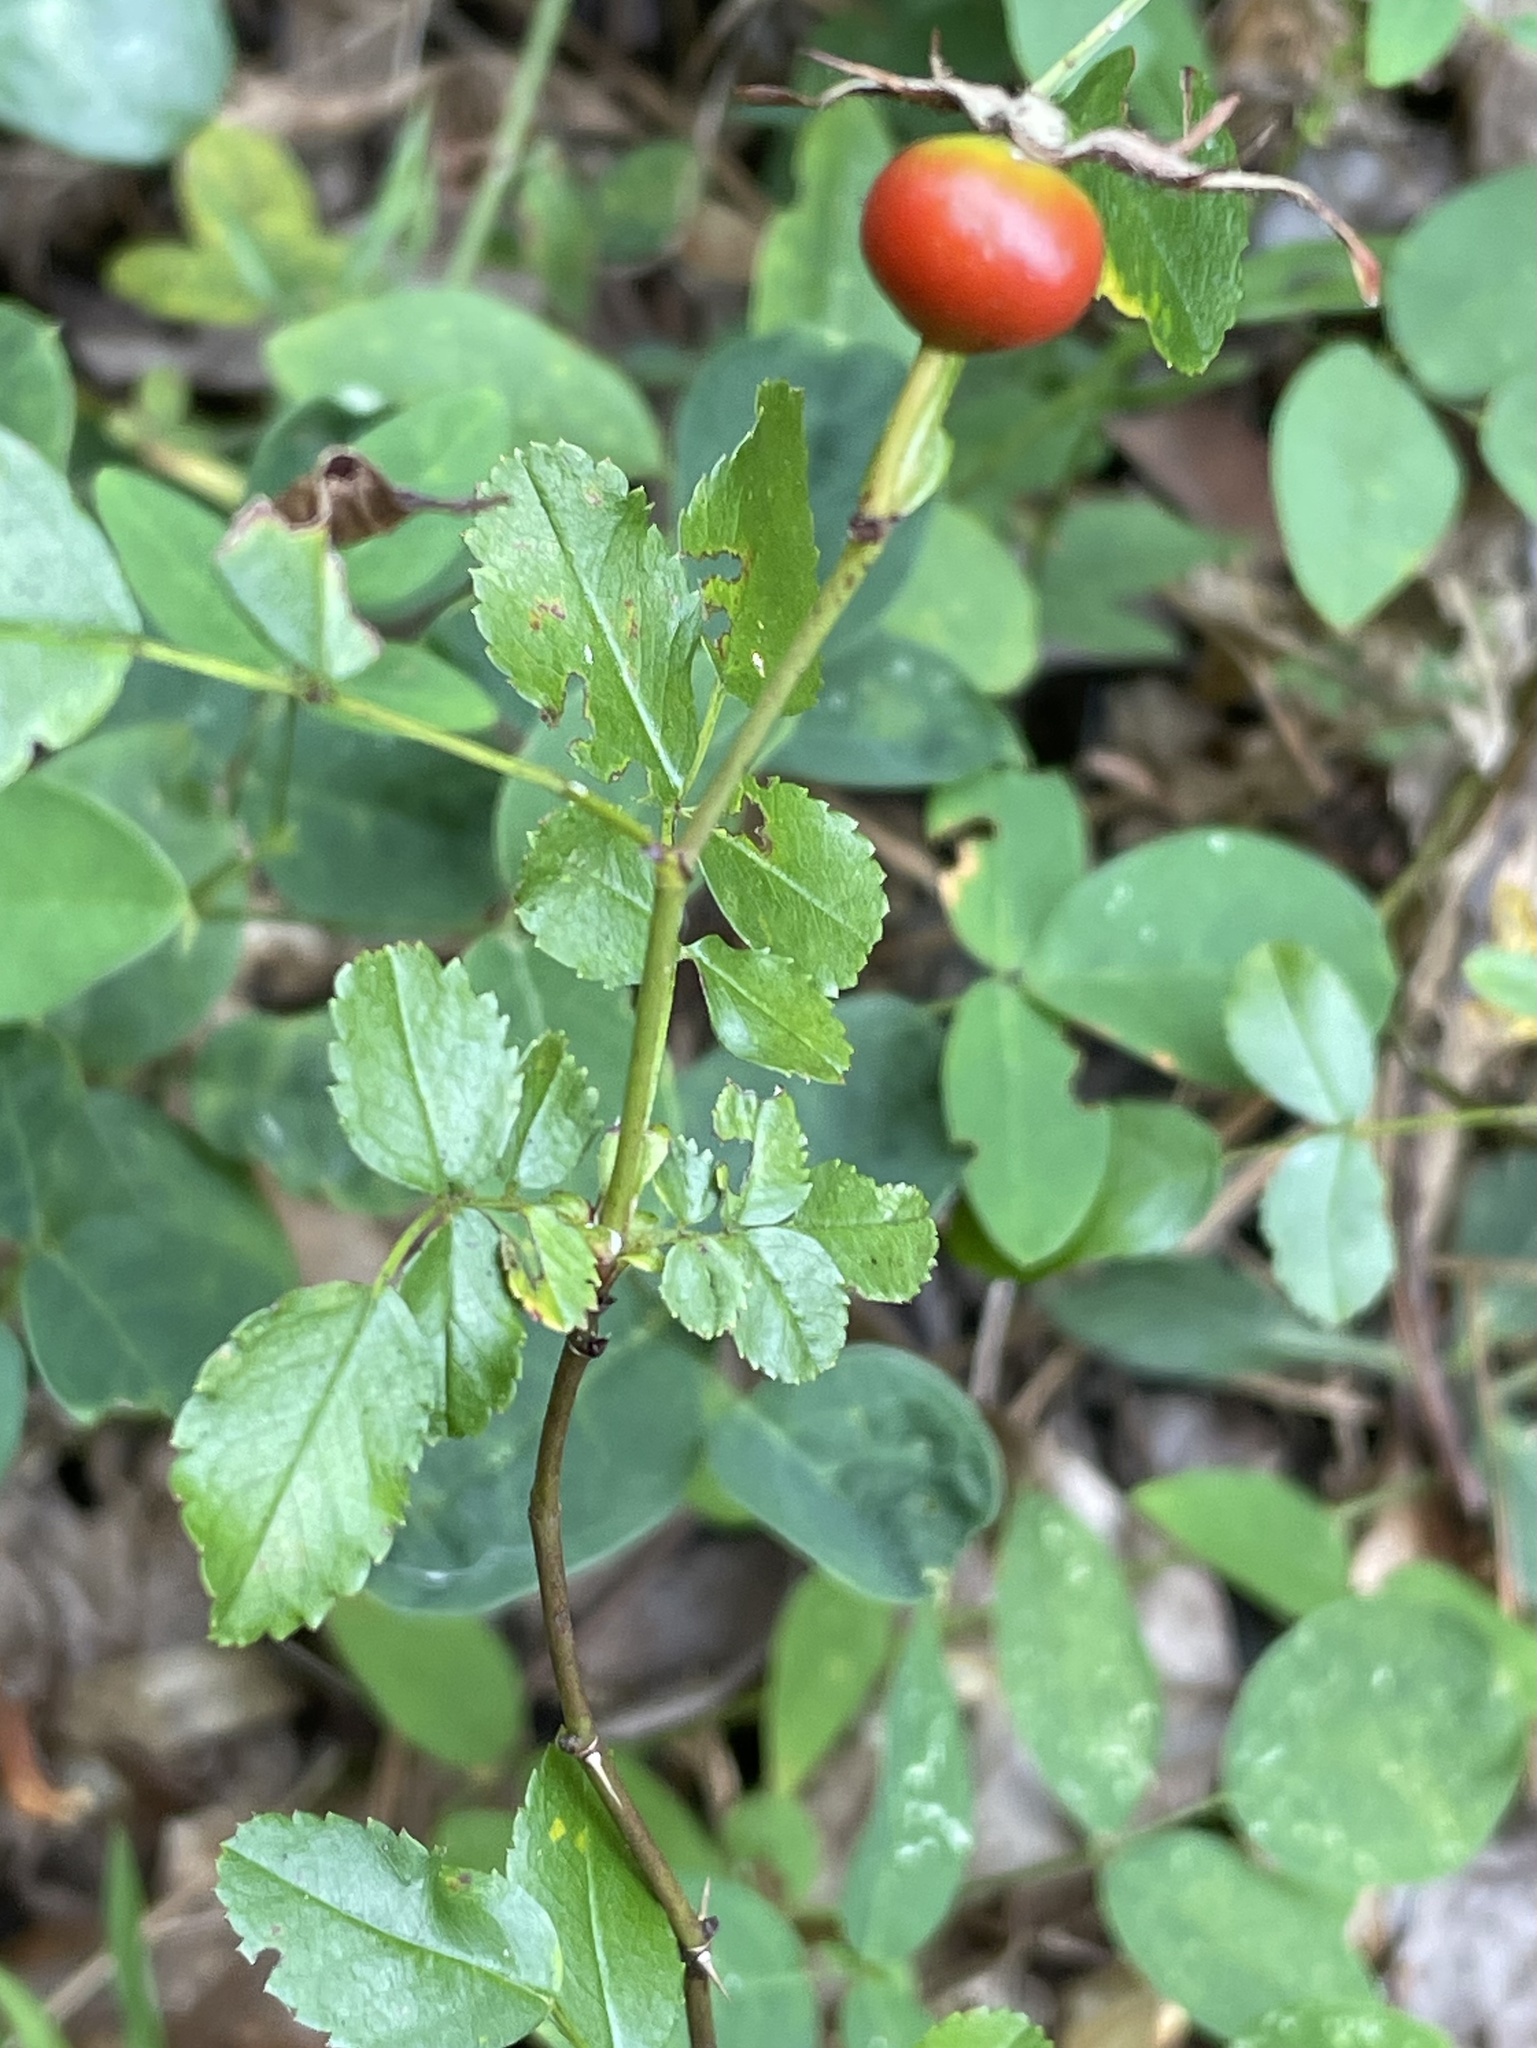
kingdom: Plantae
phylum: Tracheophyta
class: Magnoliopsida
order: Rosales
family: Rosaceae
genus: Rosa
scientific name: Rosa carolina
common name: Pasture rose
